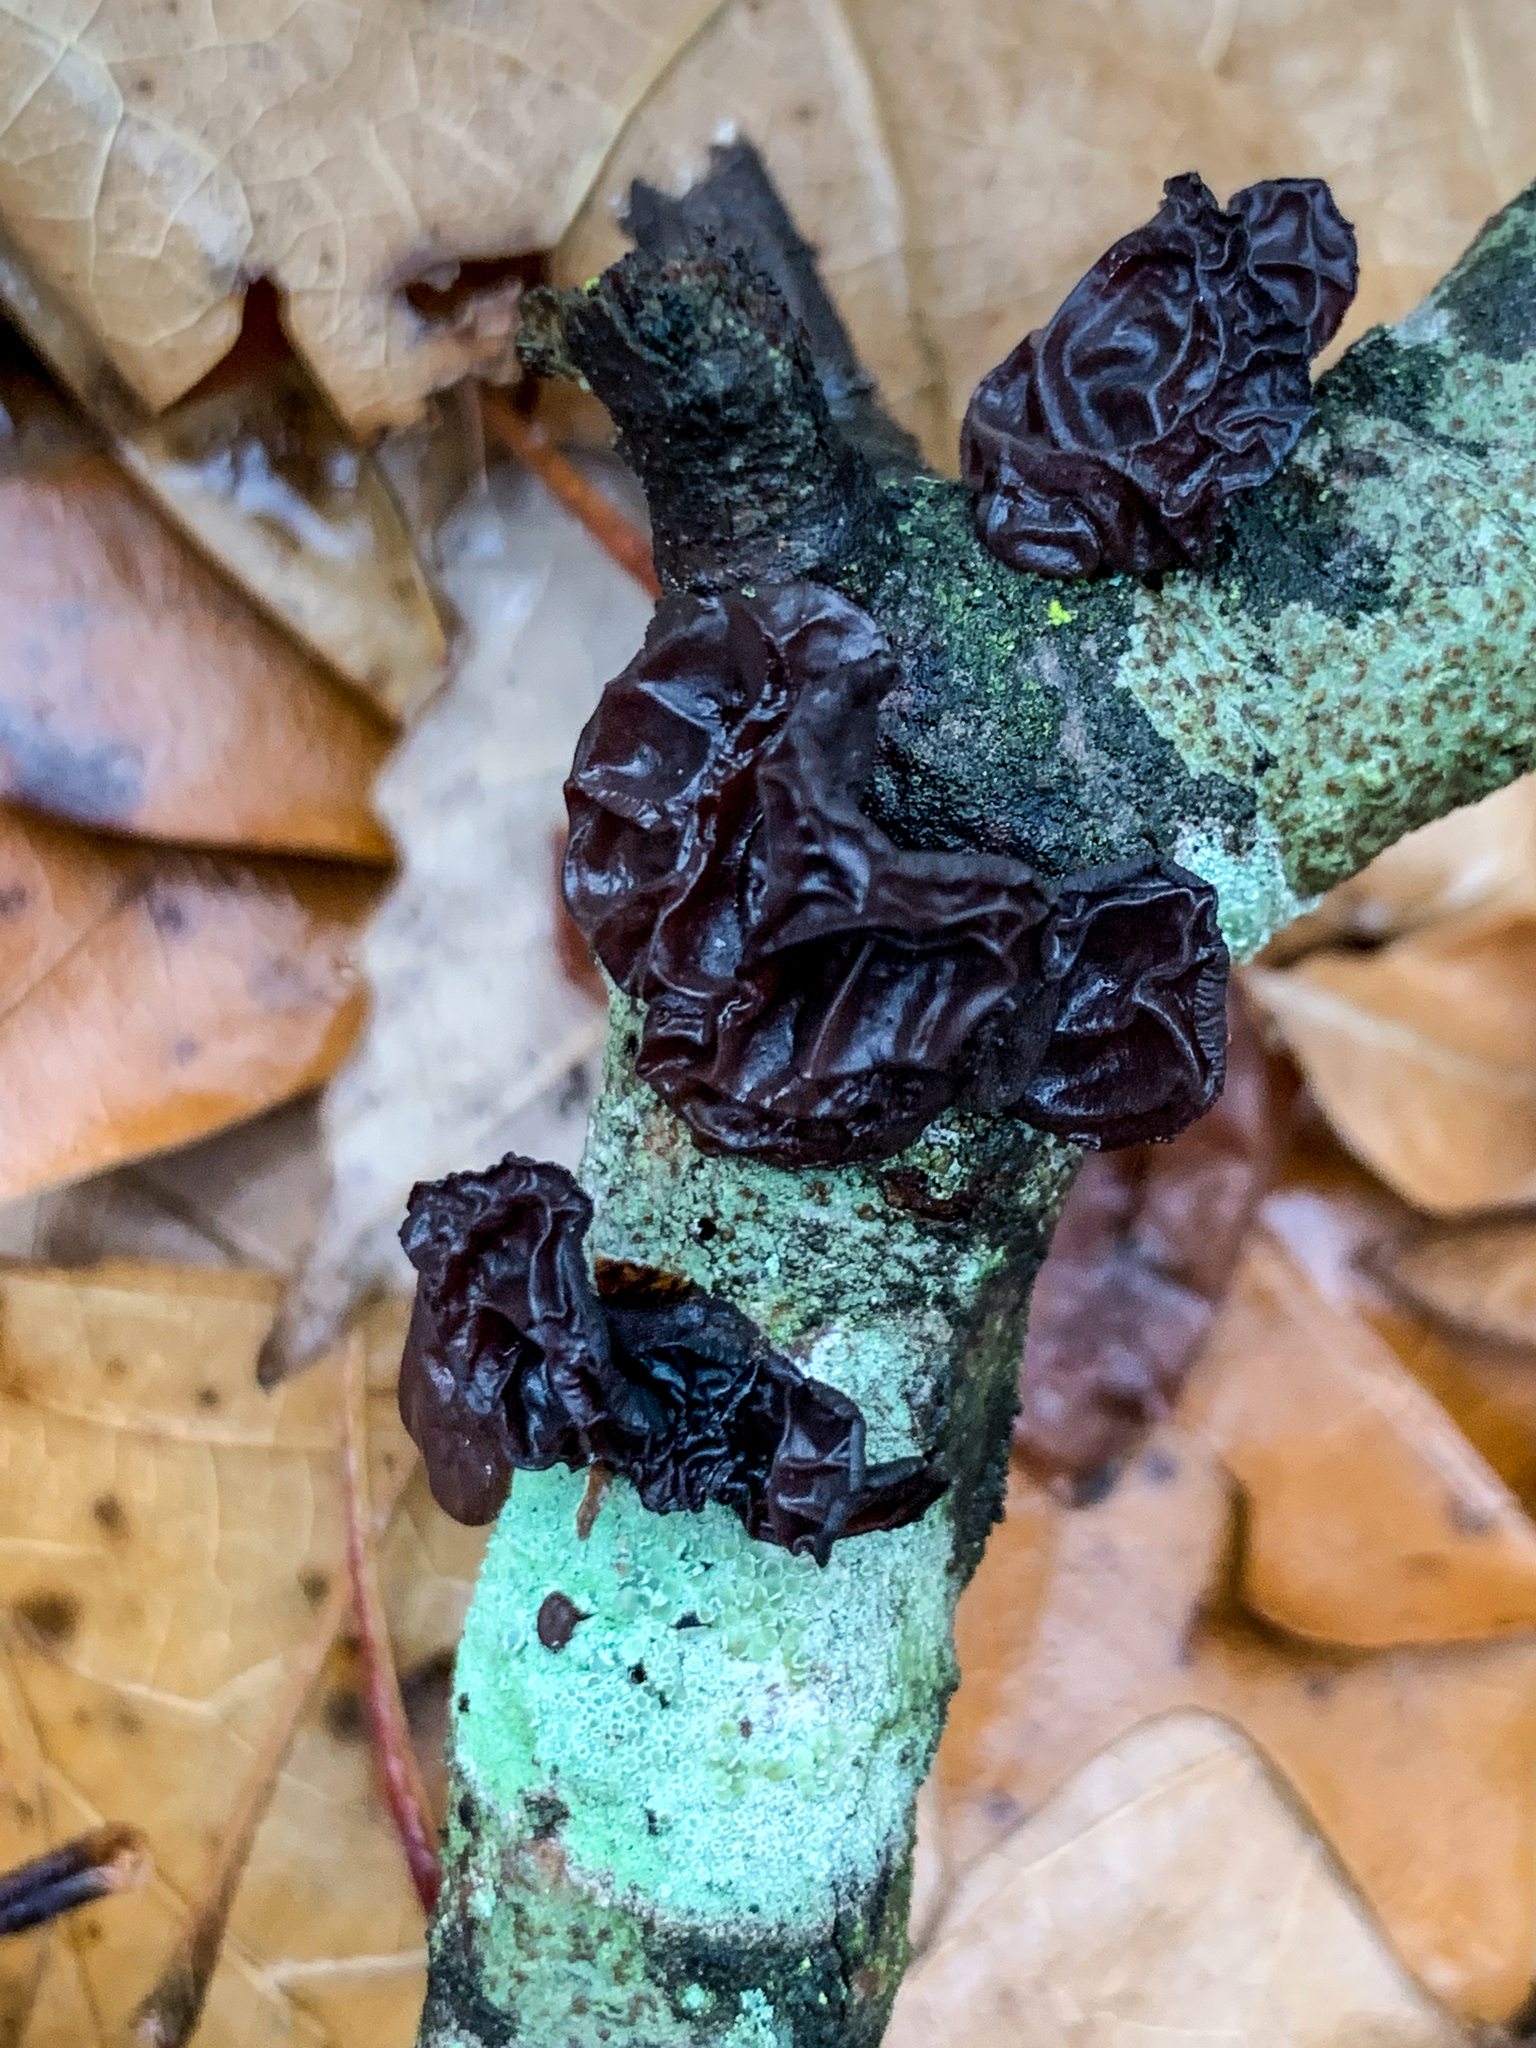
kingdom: Fungi
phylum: Basidiomycota
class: Agaricomycetes
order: Auriculariales
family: Auriculariaceae
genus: Exidia
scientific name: Exidia
